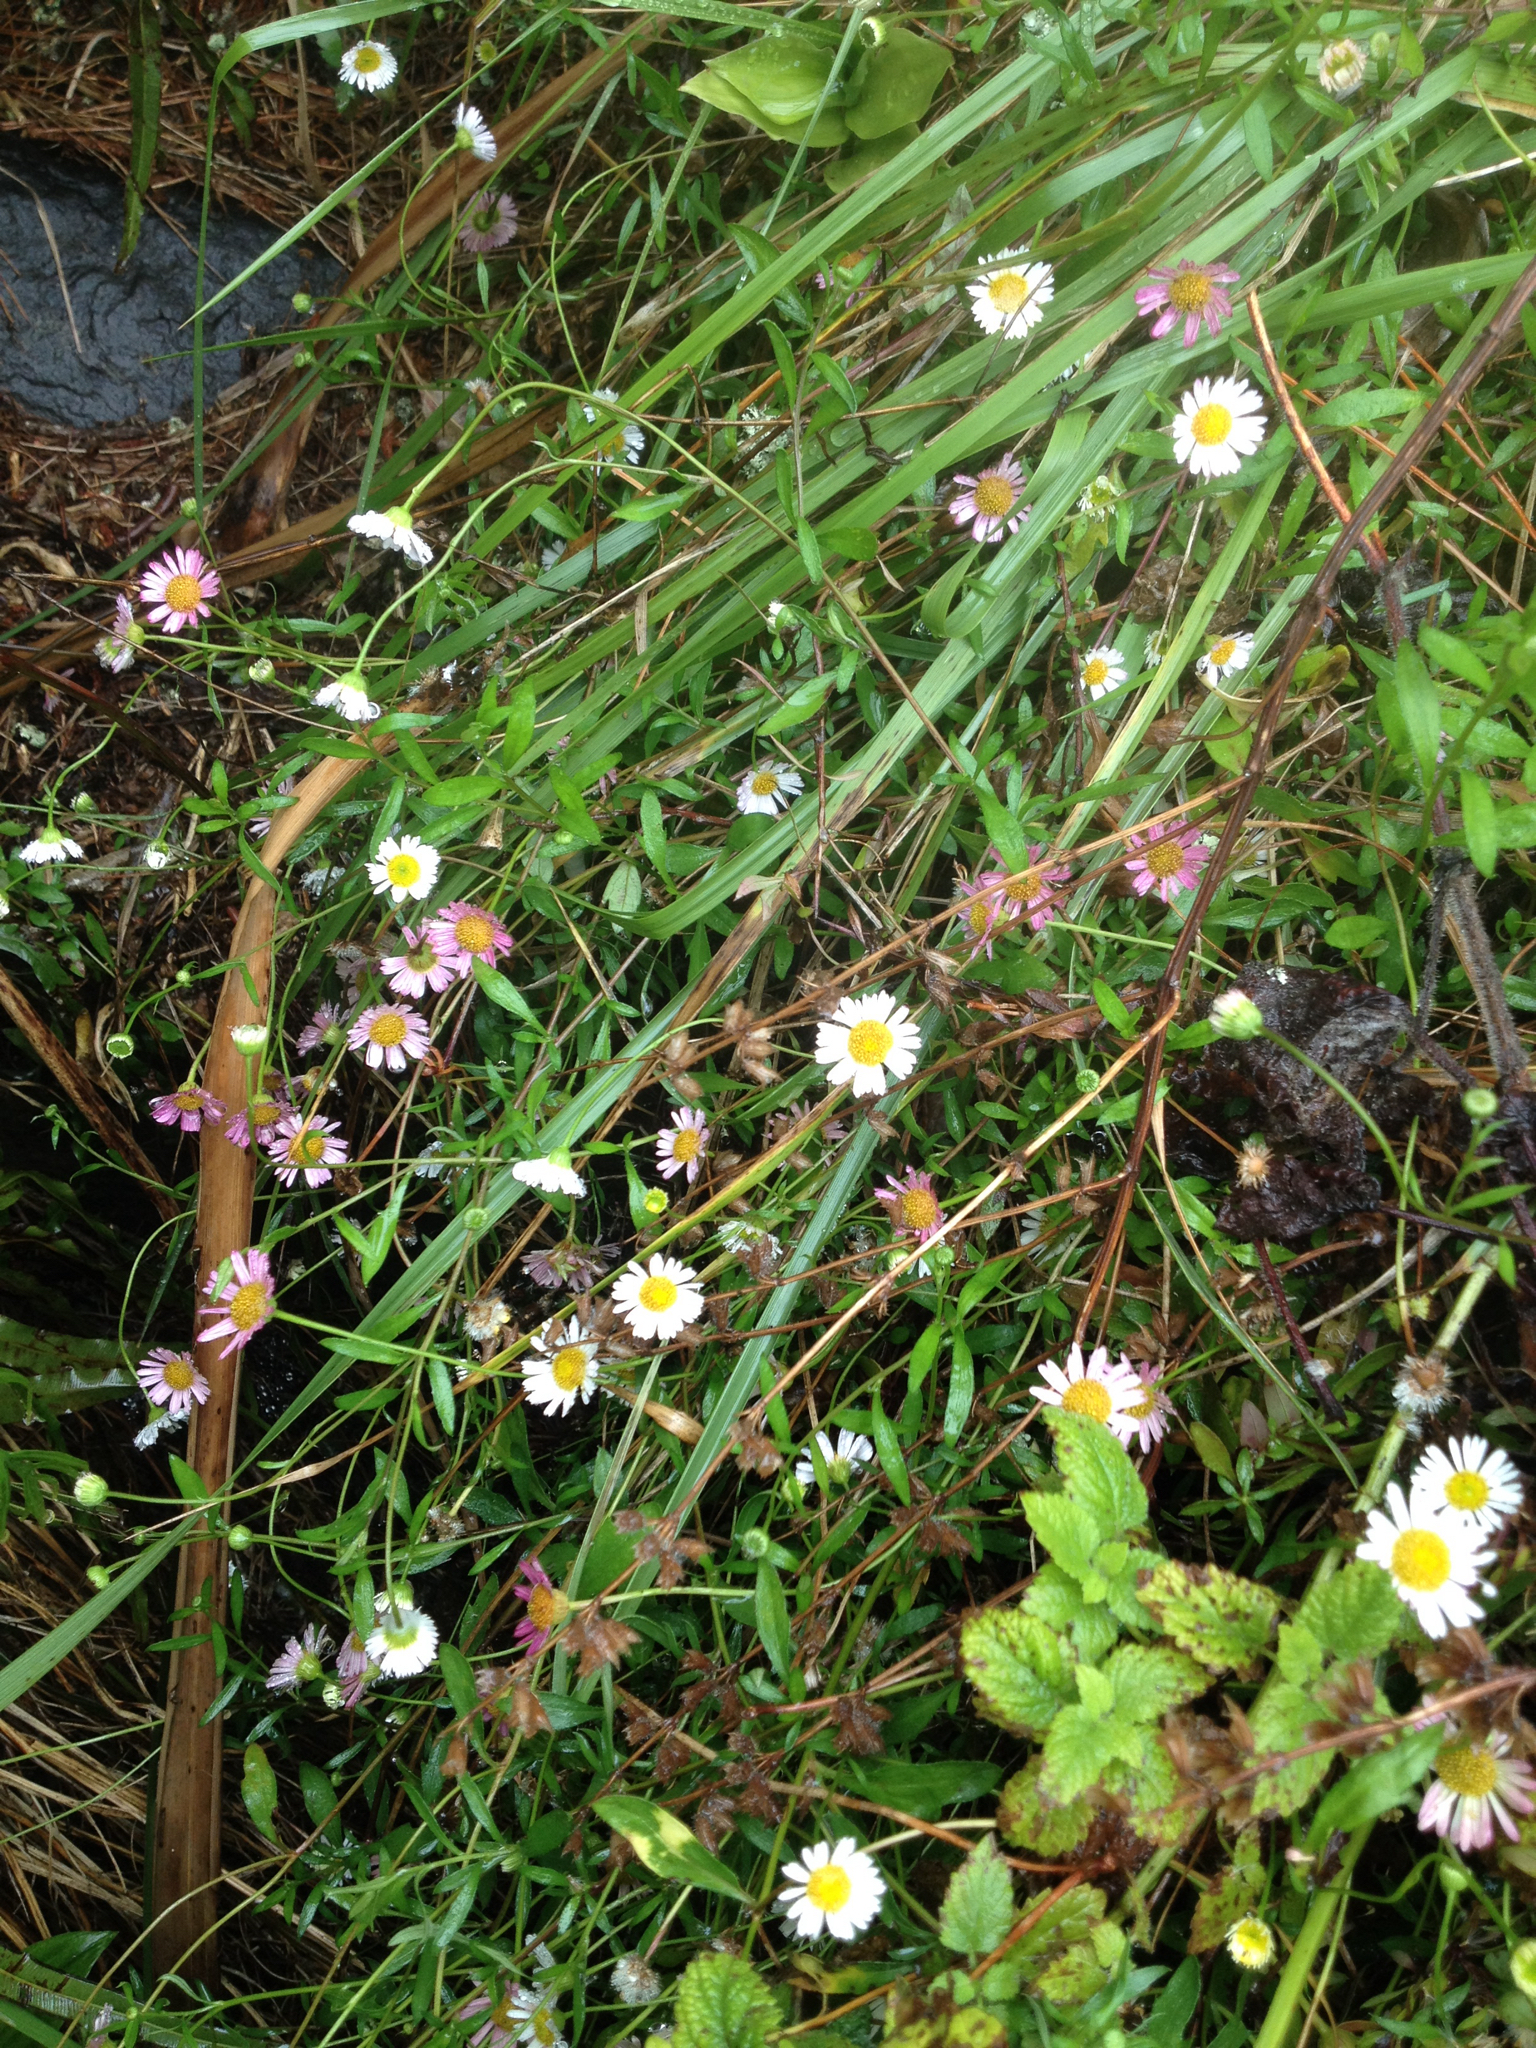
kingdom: Plantae
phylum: Tracheophyta
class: Magnoliopsida
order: Asterales
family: Asteraceae
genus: Erigeron
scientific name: Erigeron karvinskianus
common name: Mexican fleabane
